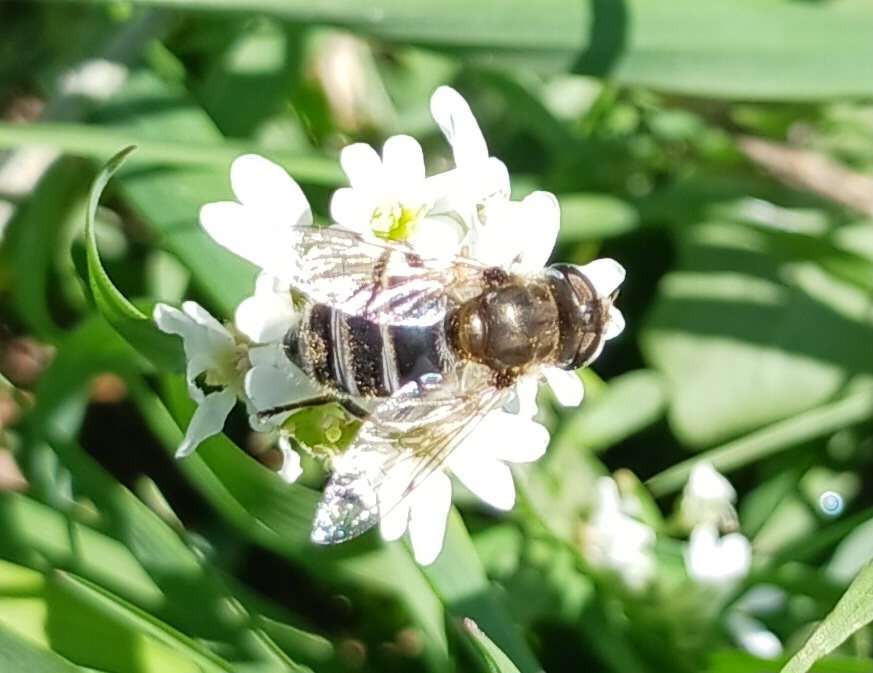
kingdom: Animalia
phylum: Arthropoda
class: Insecta
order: Diptera
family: Syrphidae
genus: Eristalis
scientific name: Eristalis arbustorum
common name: Hover fly
